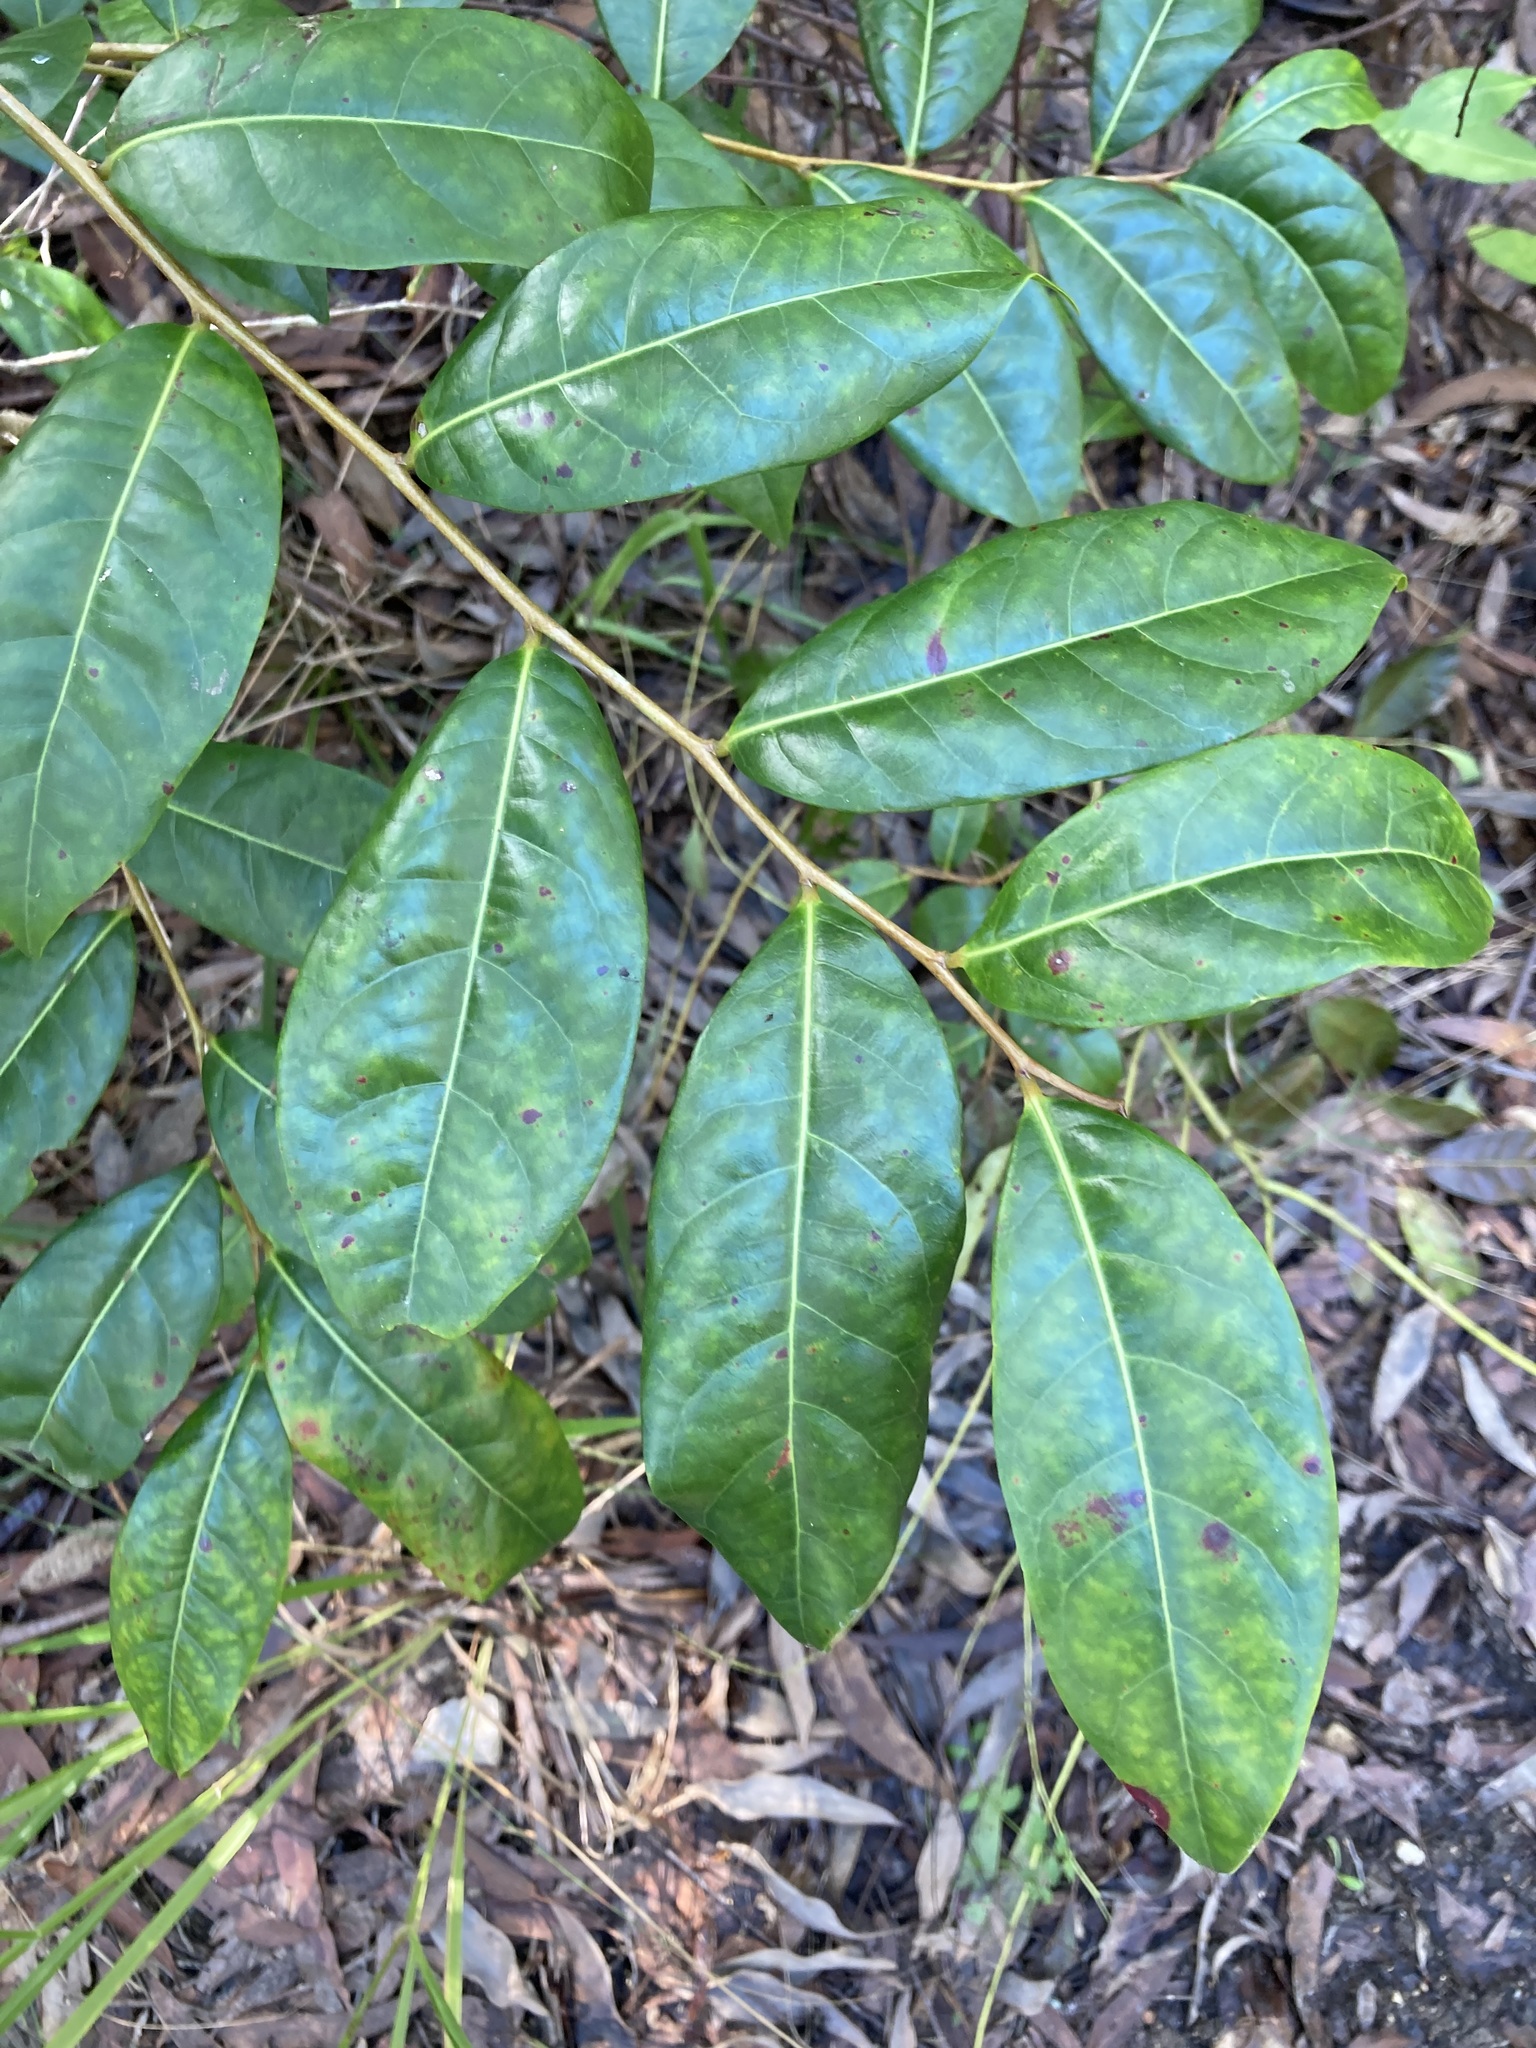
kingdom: Plantae
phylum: Tracheophyta
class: Magnoliopsida
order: Malpighiales
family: Phyllanthaceae
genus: Glochidion
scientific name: Glochidion ferdinandi
